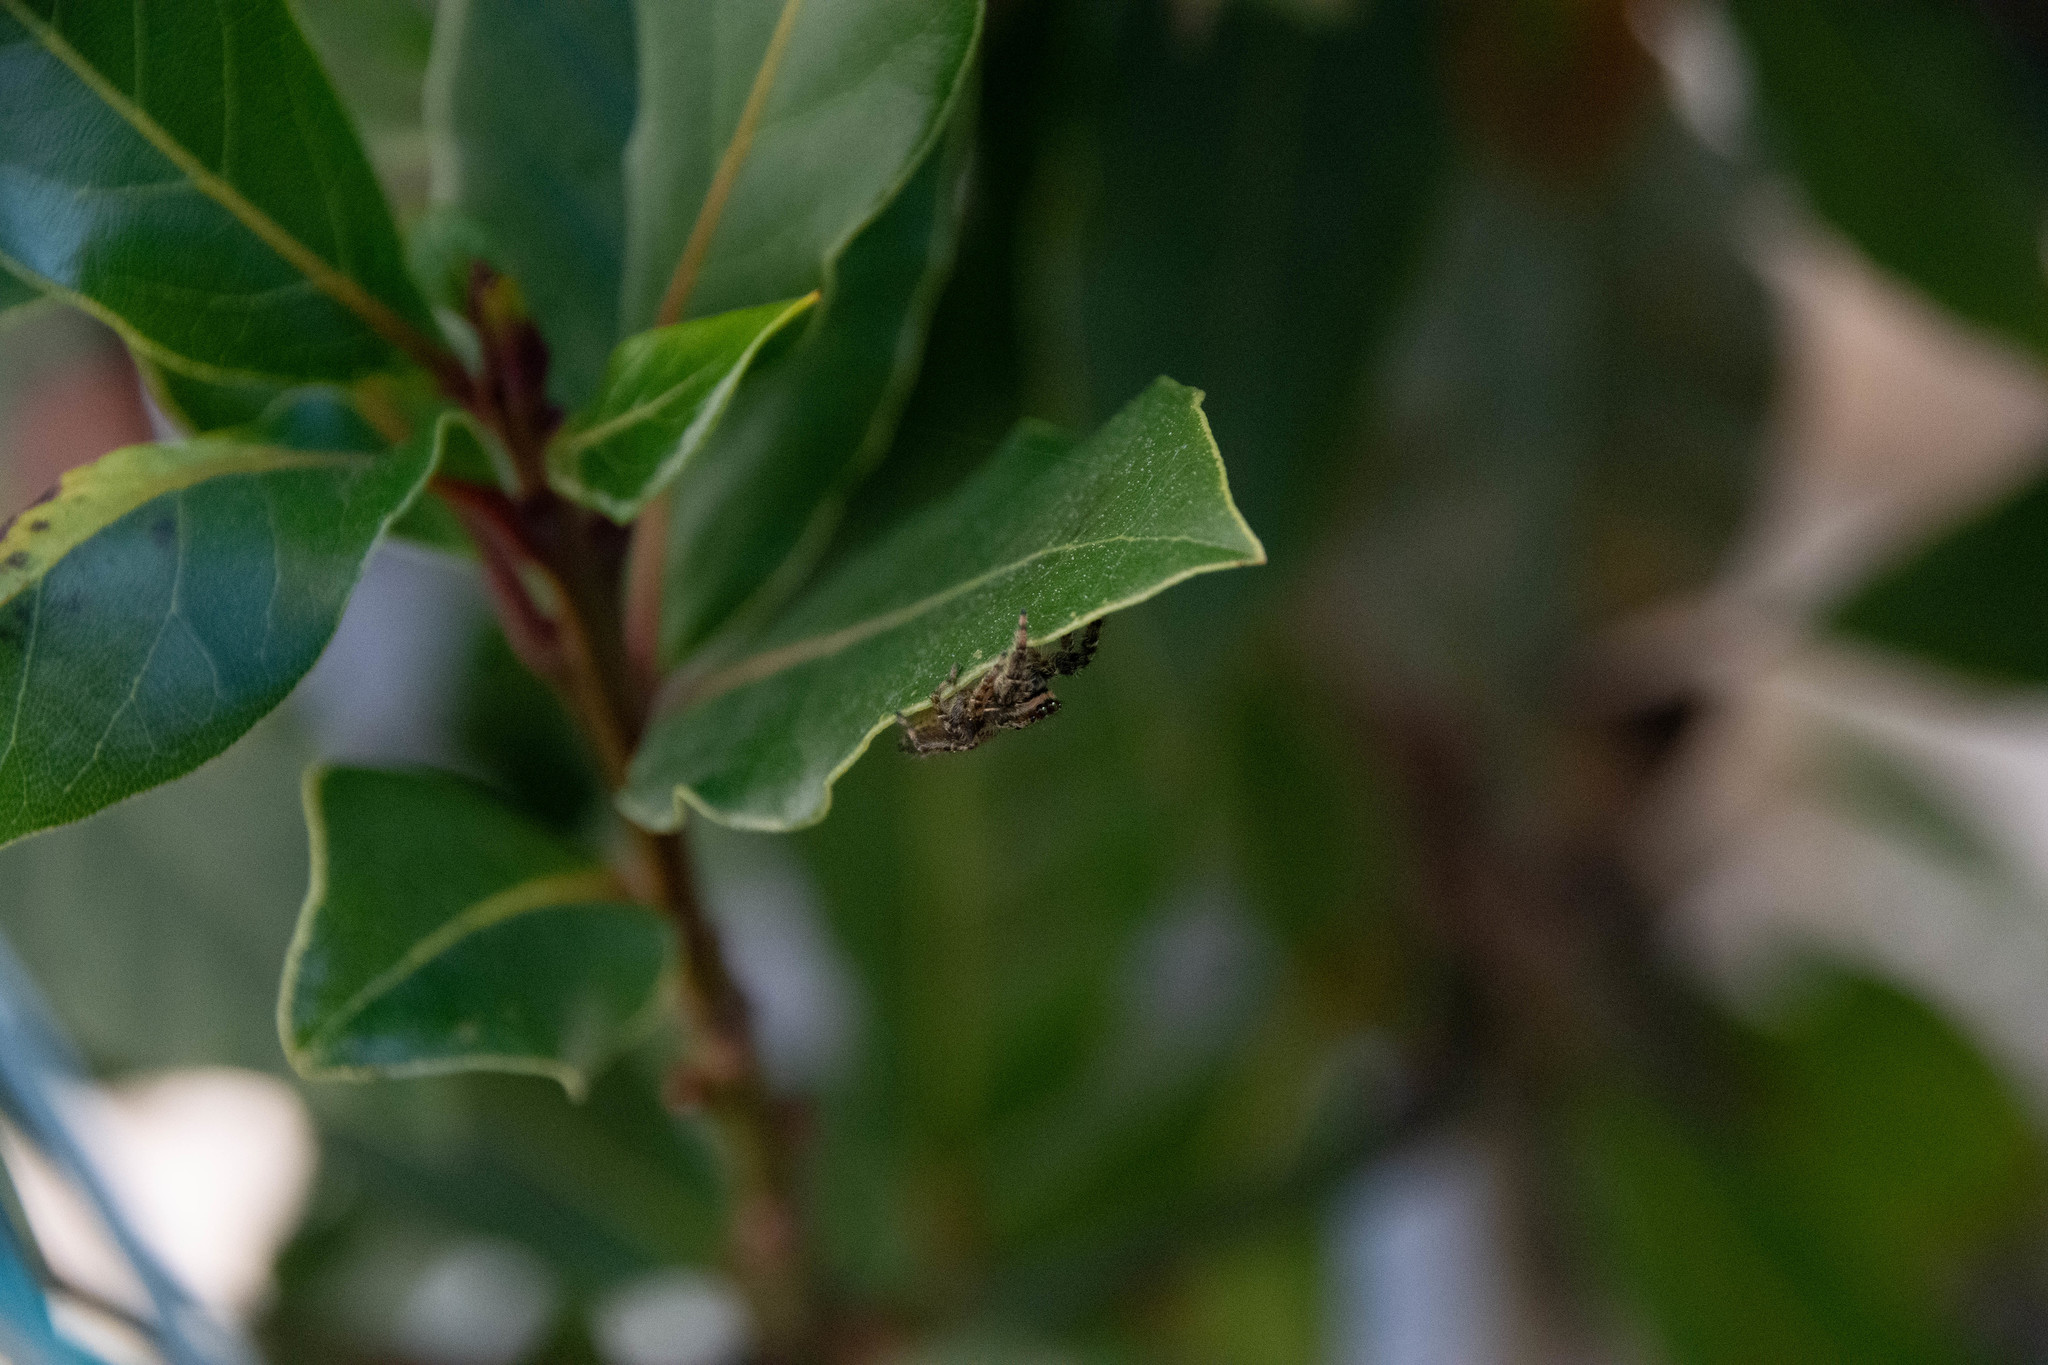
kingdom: Animalia
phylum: Arthropoda
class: Arachnida
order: Araneae
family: Salticidae
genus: Marpissa
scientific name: Marpissa muscosa
